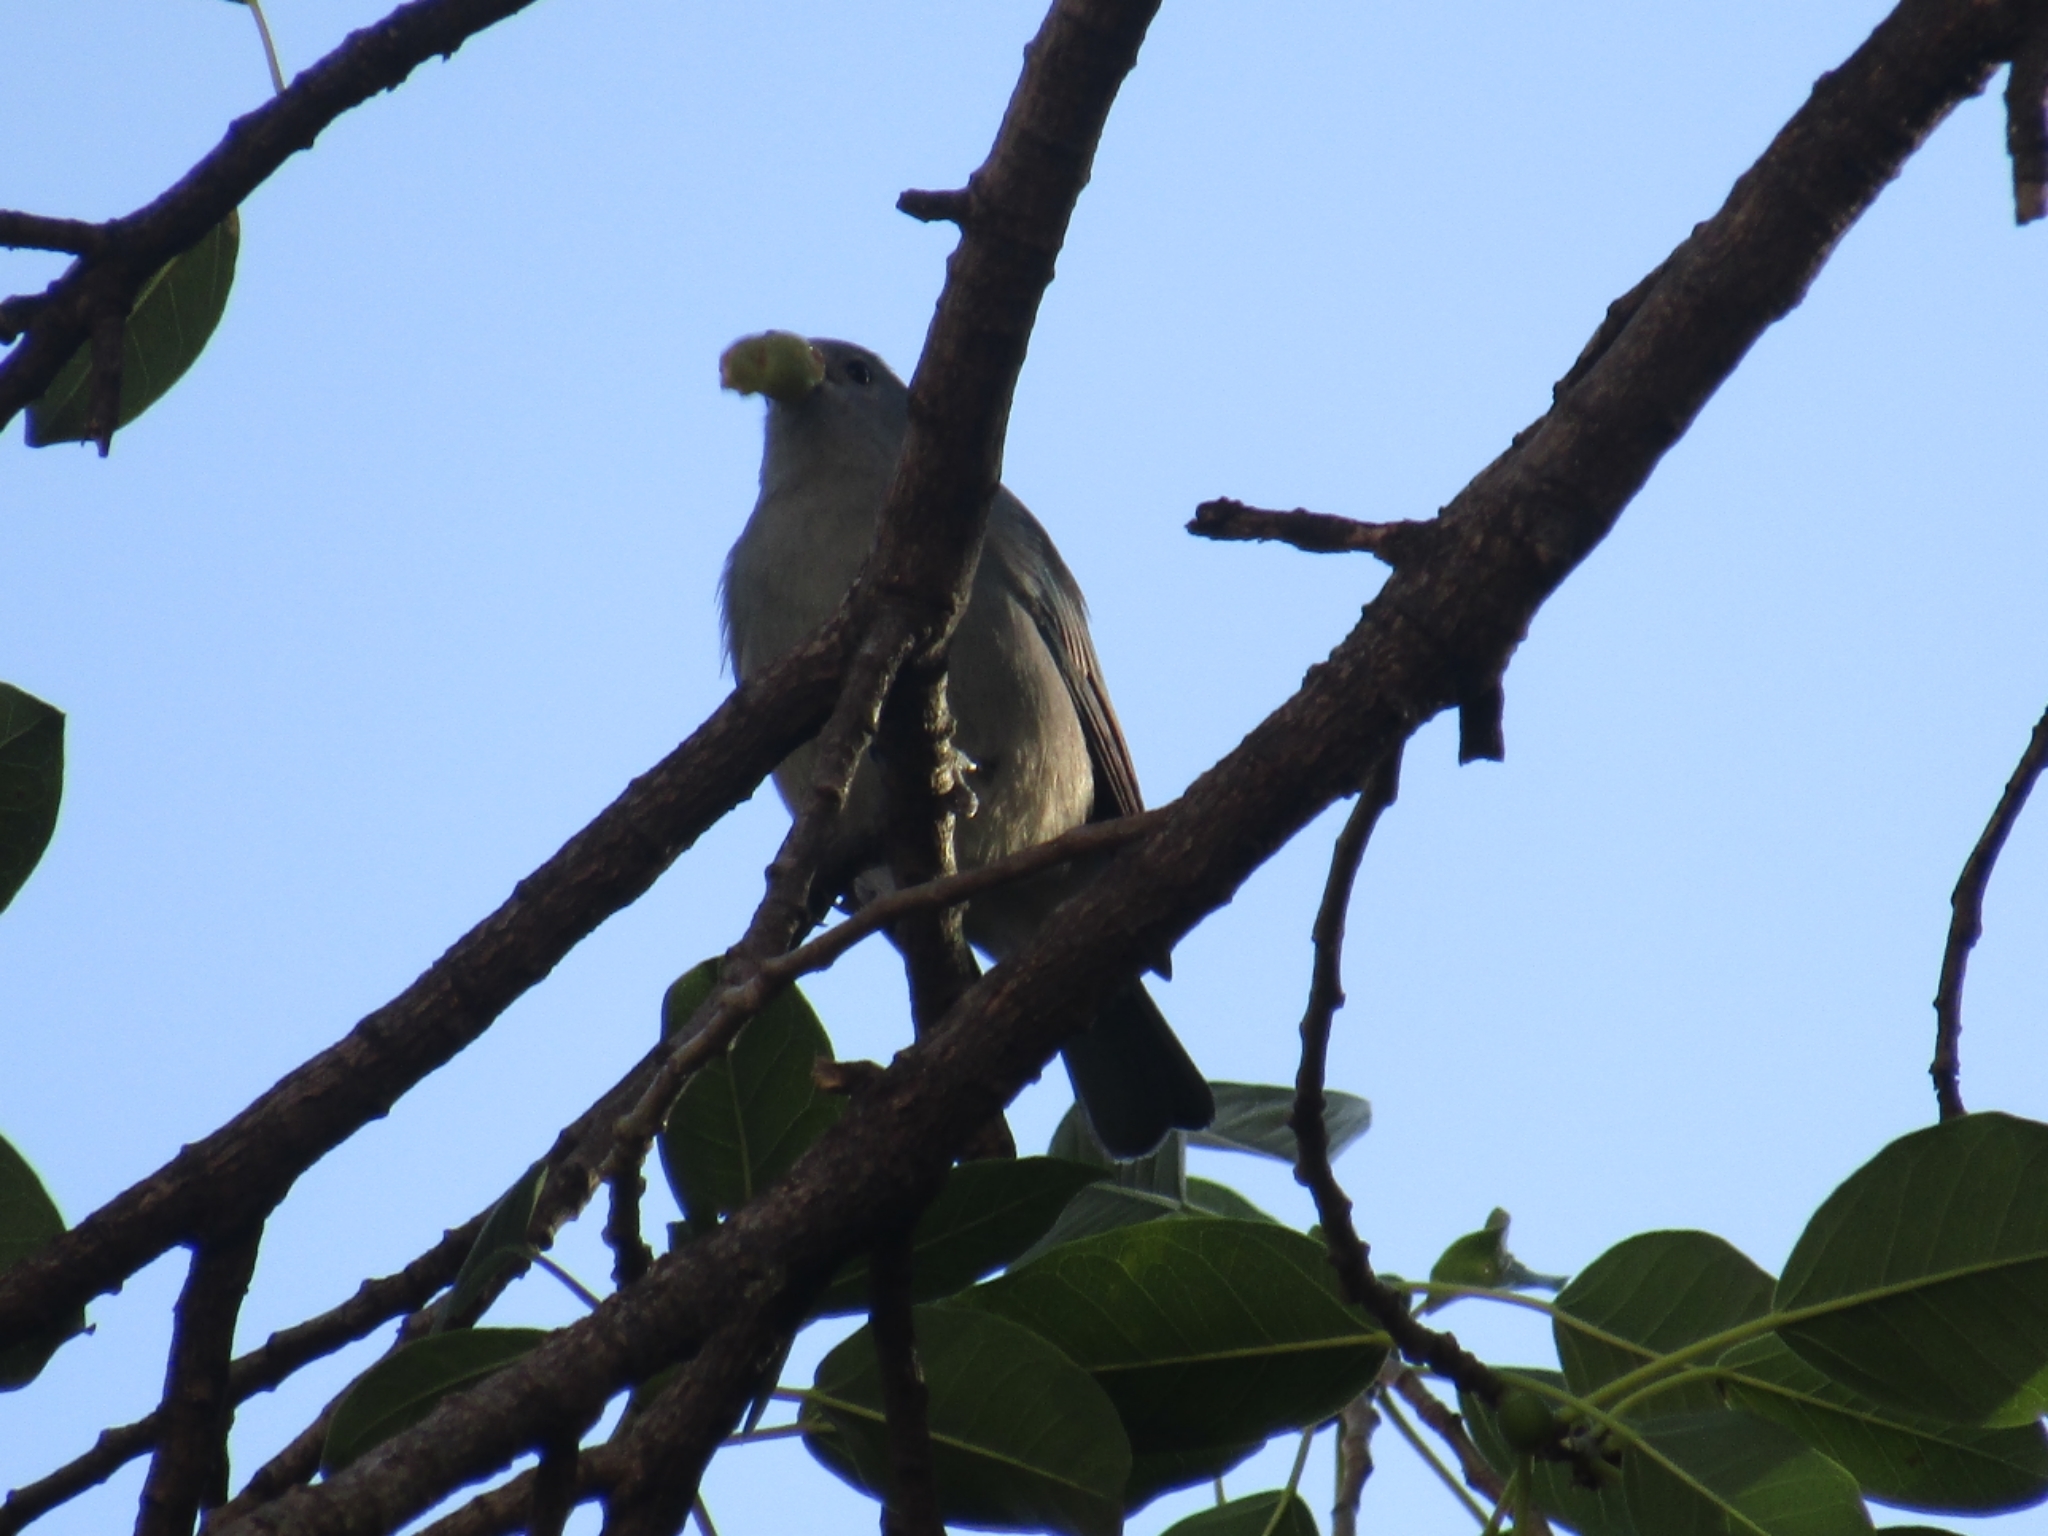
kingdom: Animalia
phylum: Chordata
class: Aves
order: Passeriformes
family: Thraupidae
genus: Thraupis
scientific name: Thraupis sayaca
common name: Sayaca tanager
